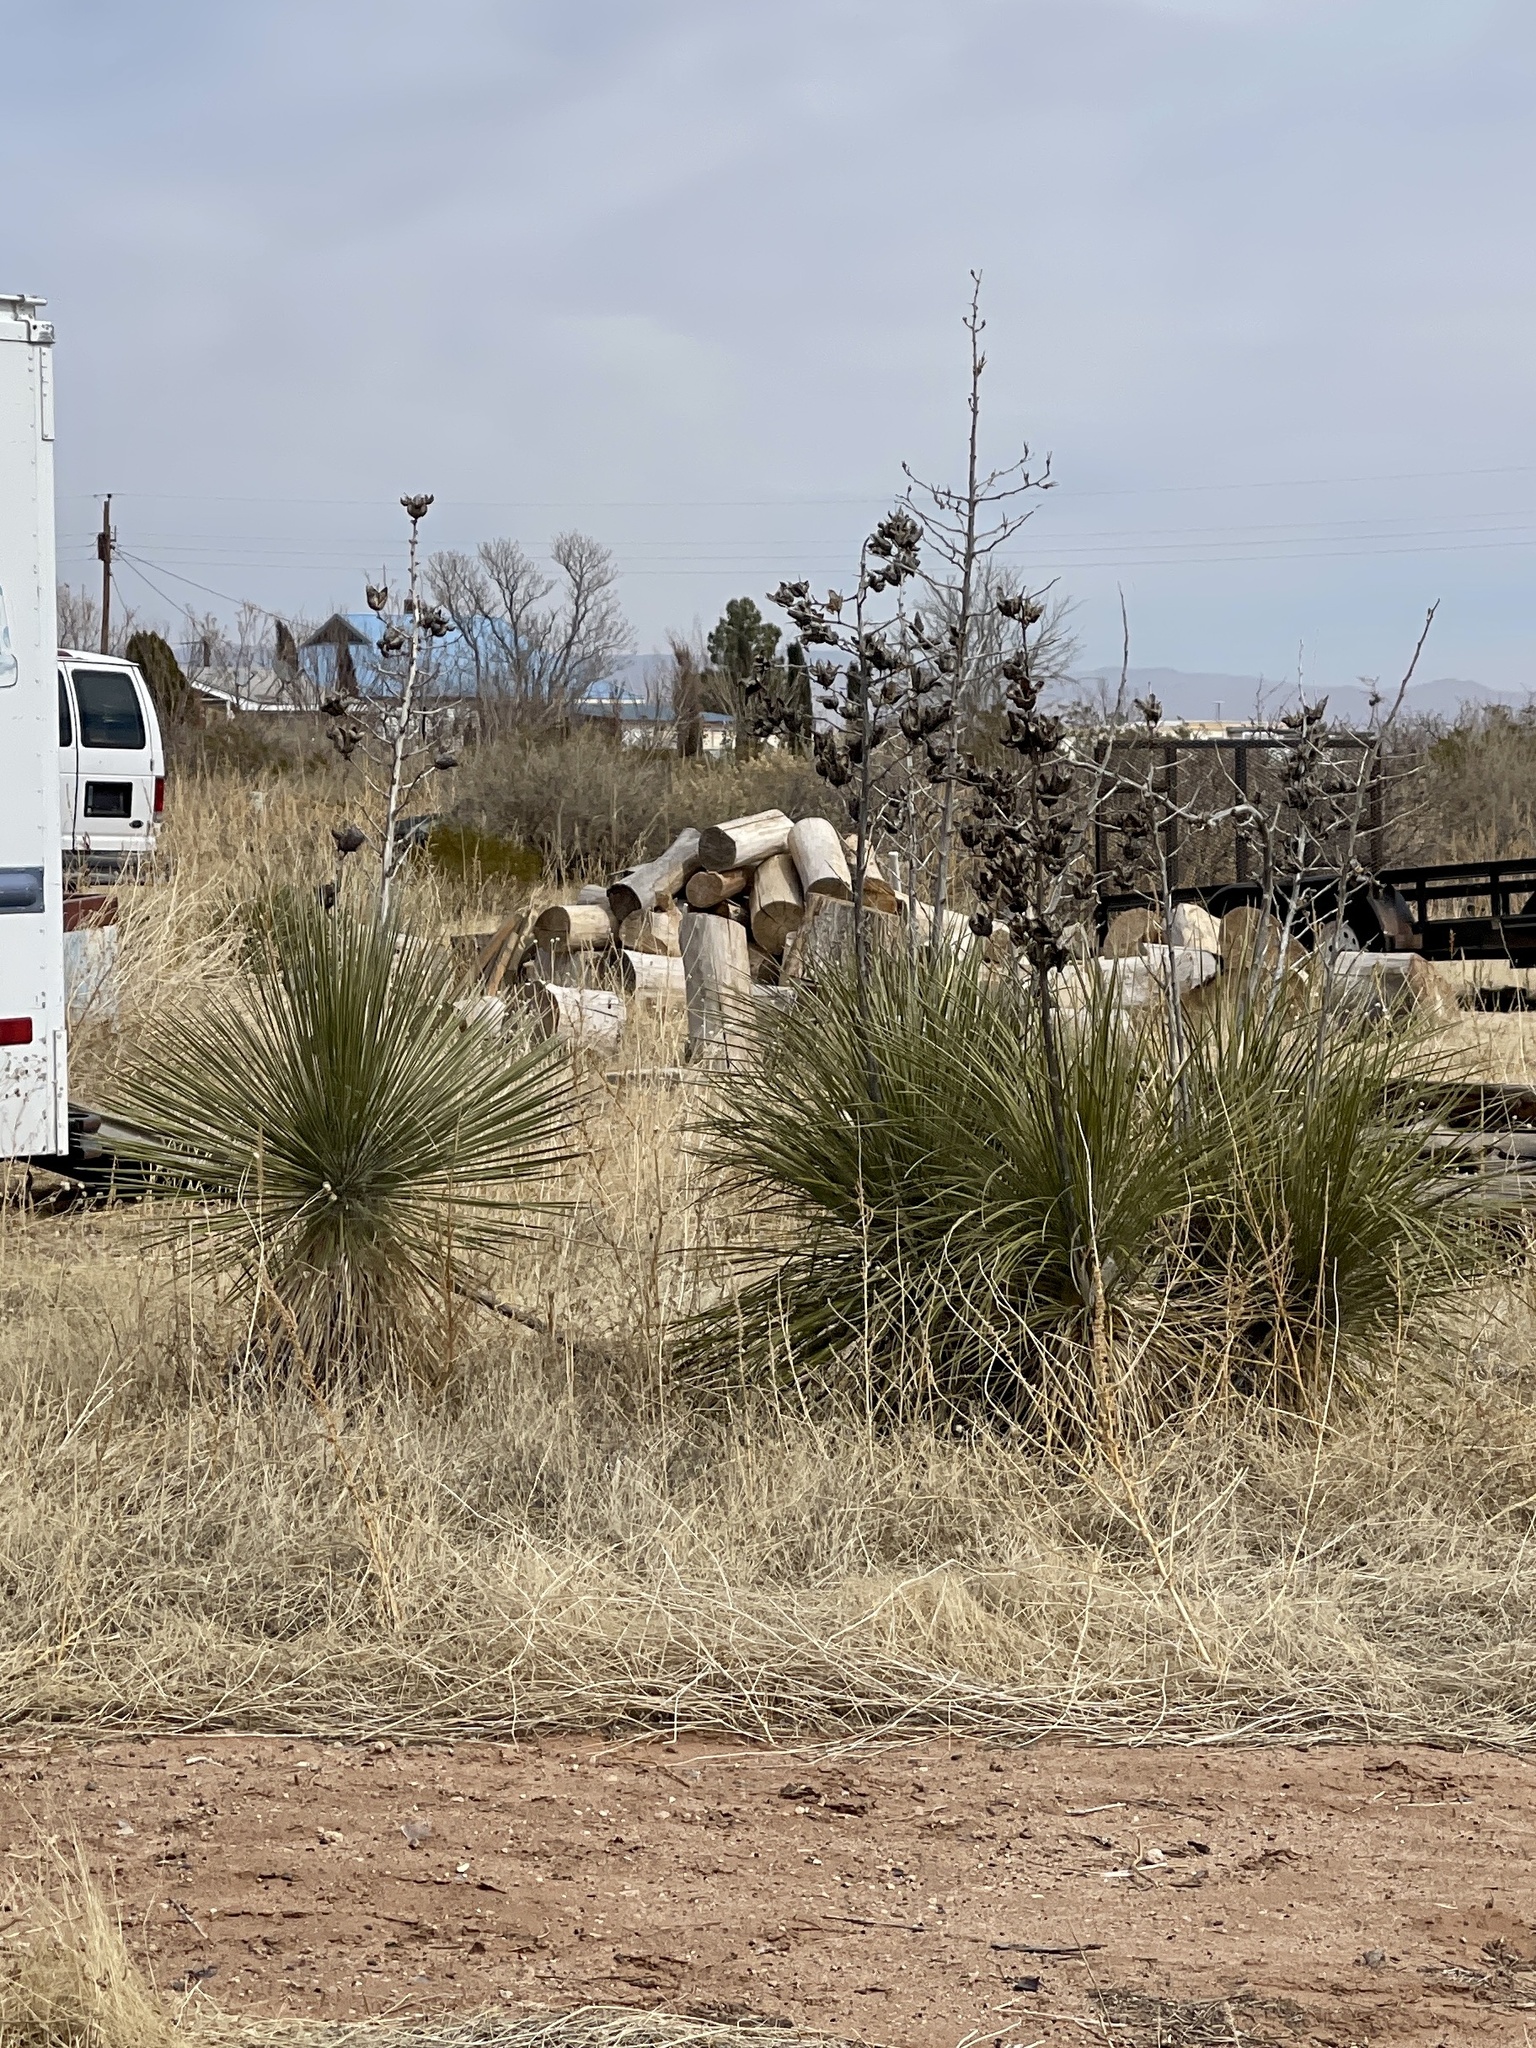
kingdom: Plantae
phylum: Tracheophyta
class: Liliopsida
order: Asparagales
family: Asparagaceae
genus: Yucca
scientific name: Yucca elata
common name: Palmella
